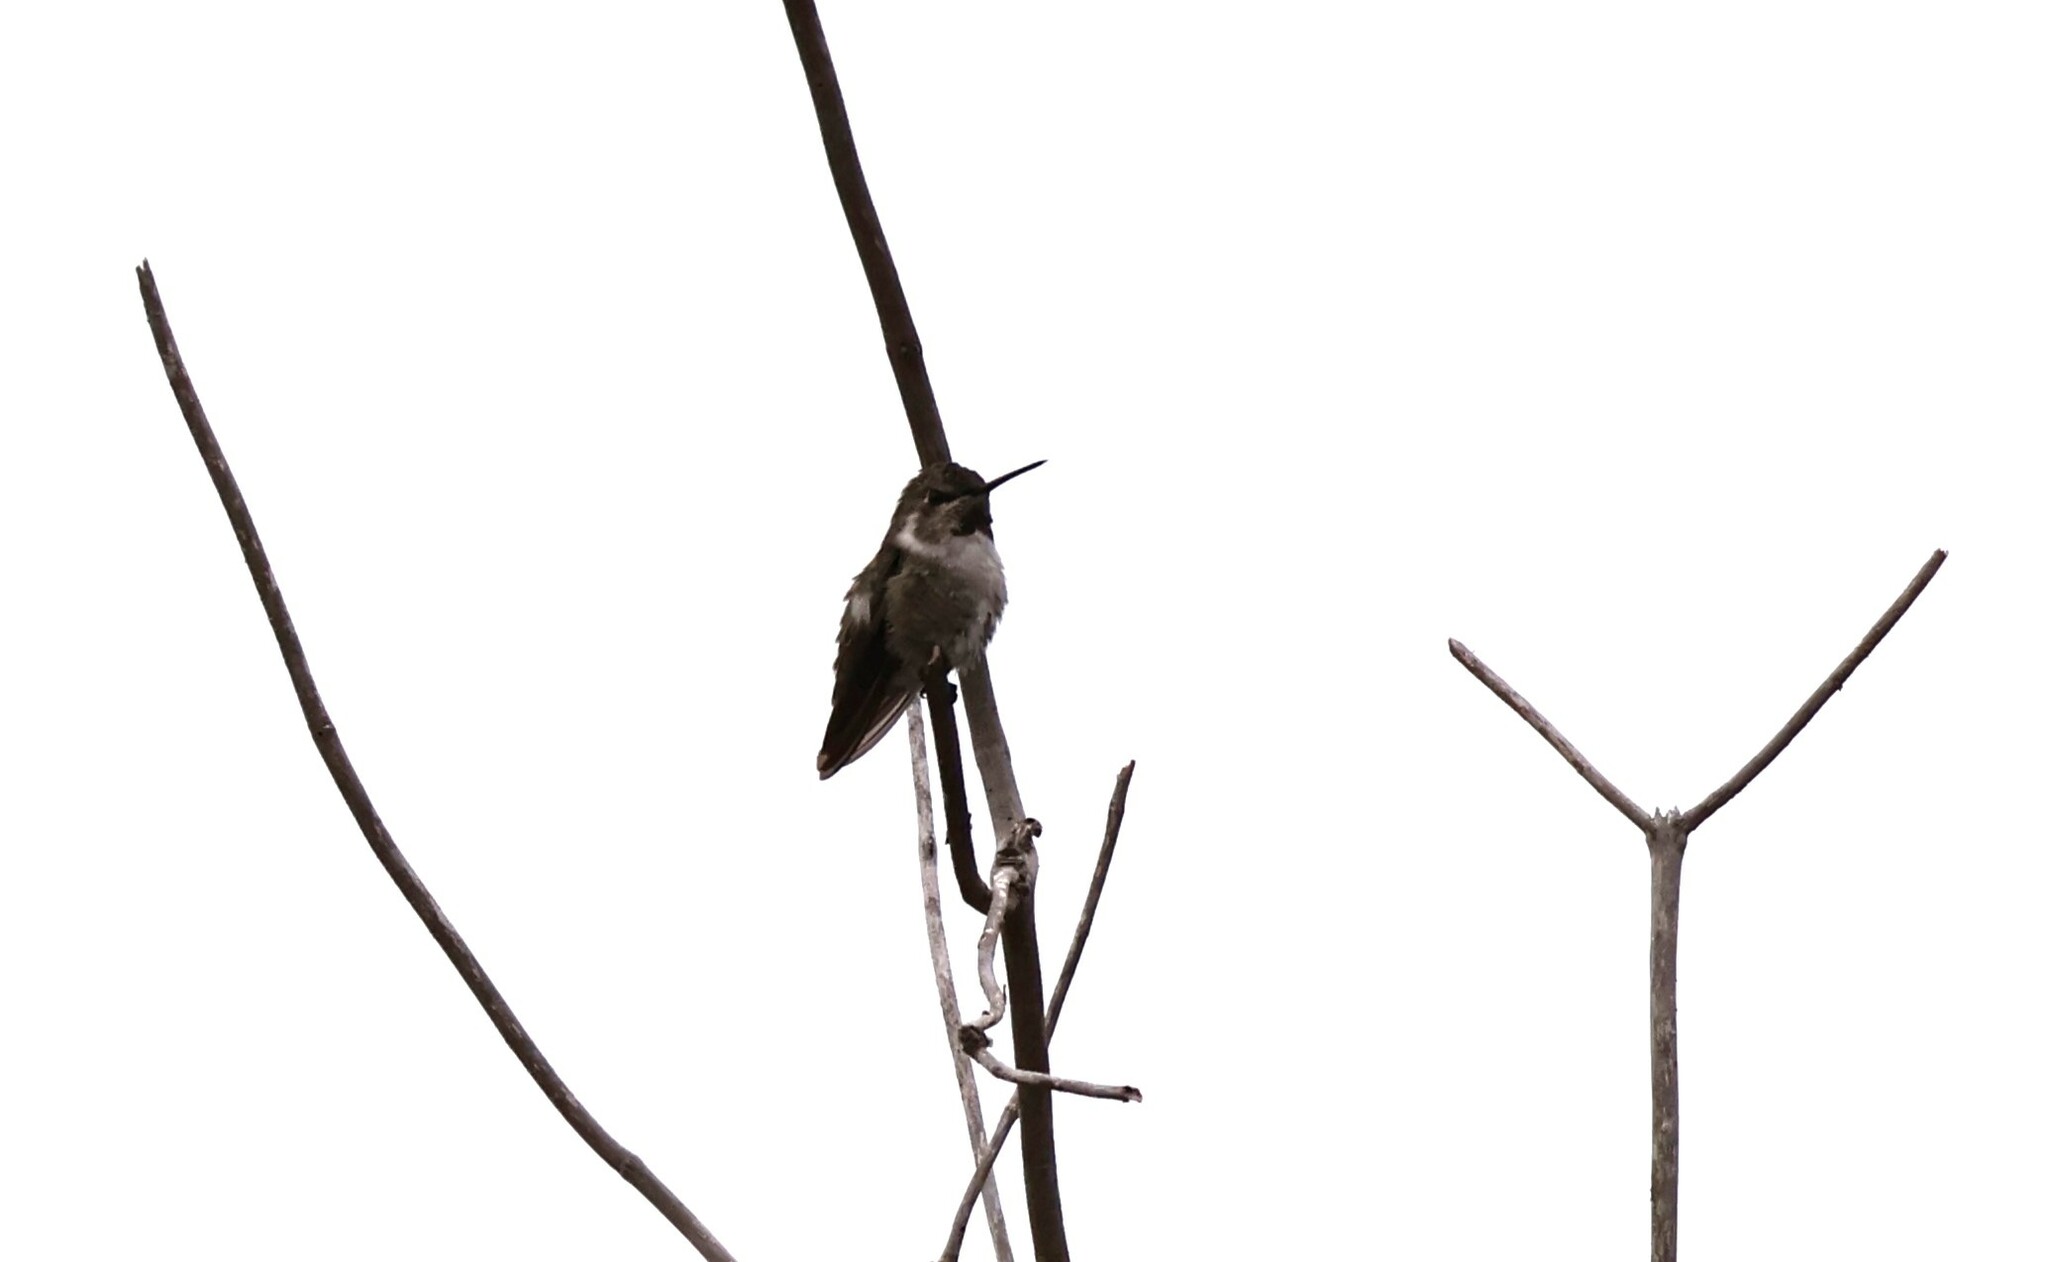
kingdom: Animalia
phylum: Chordata
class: Aves
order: Apodiformes
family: Trochilidae
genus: Calypte
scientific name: Calypte anna
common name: Anna's hummingbird
